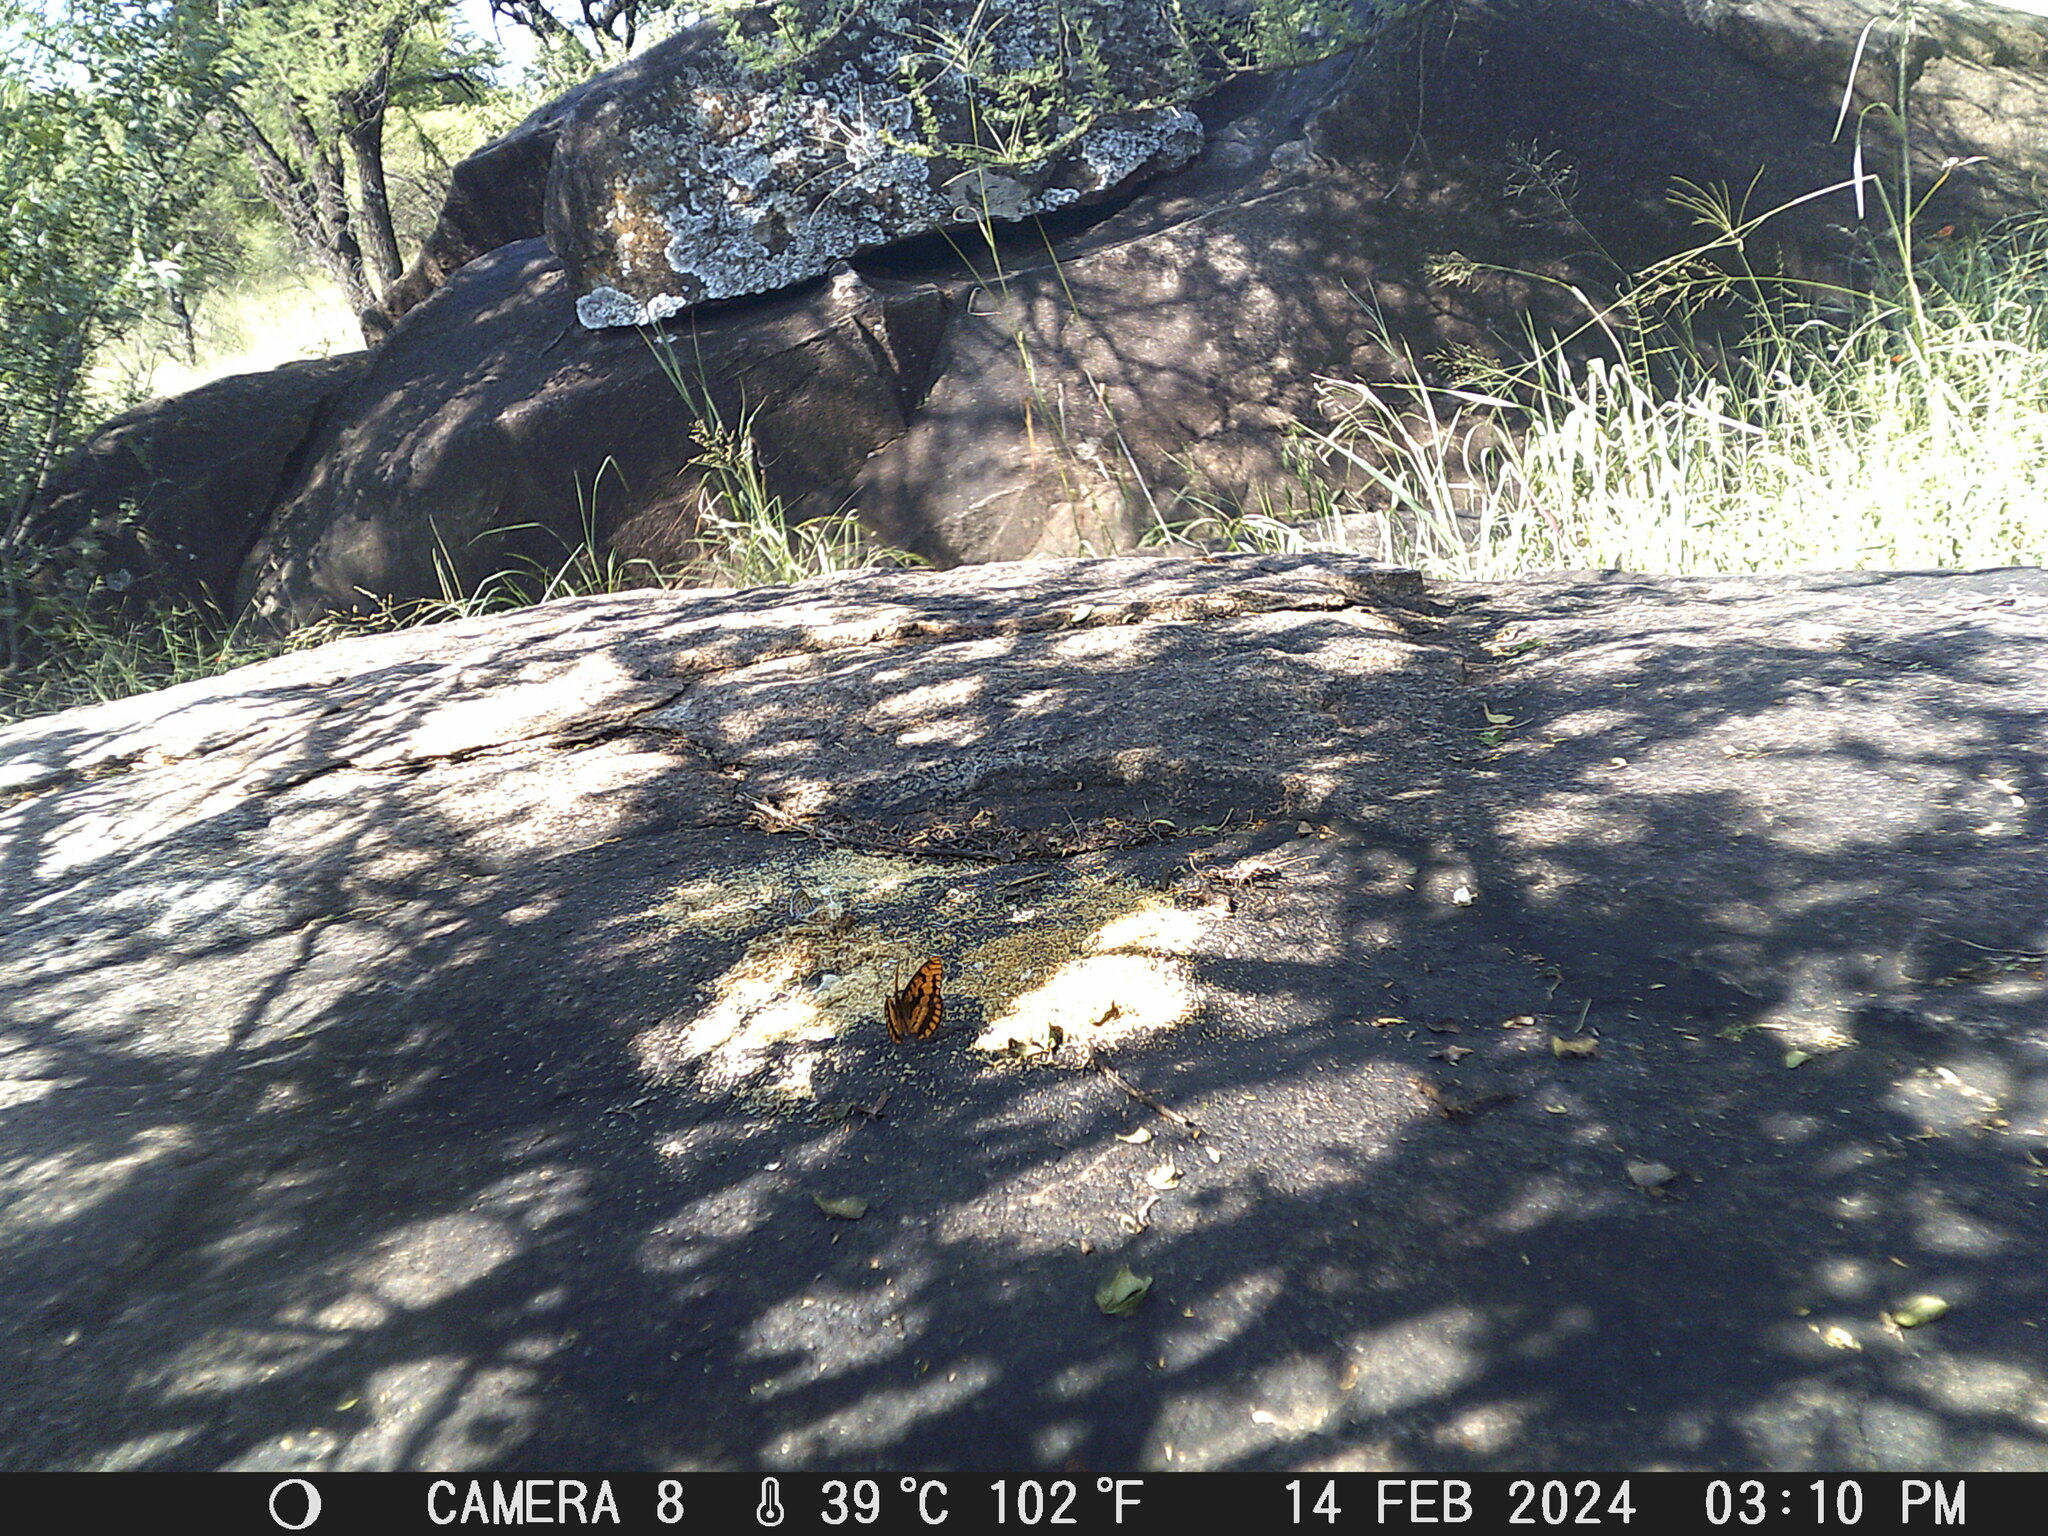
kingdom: Animalia
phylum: Arthropoda
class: Insecta
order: Lepidoptera
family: Nymphalidae
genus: Byblia
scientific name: Byblia ilithyia
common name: Spotted joker
